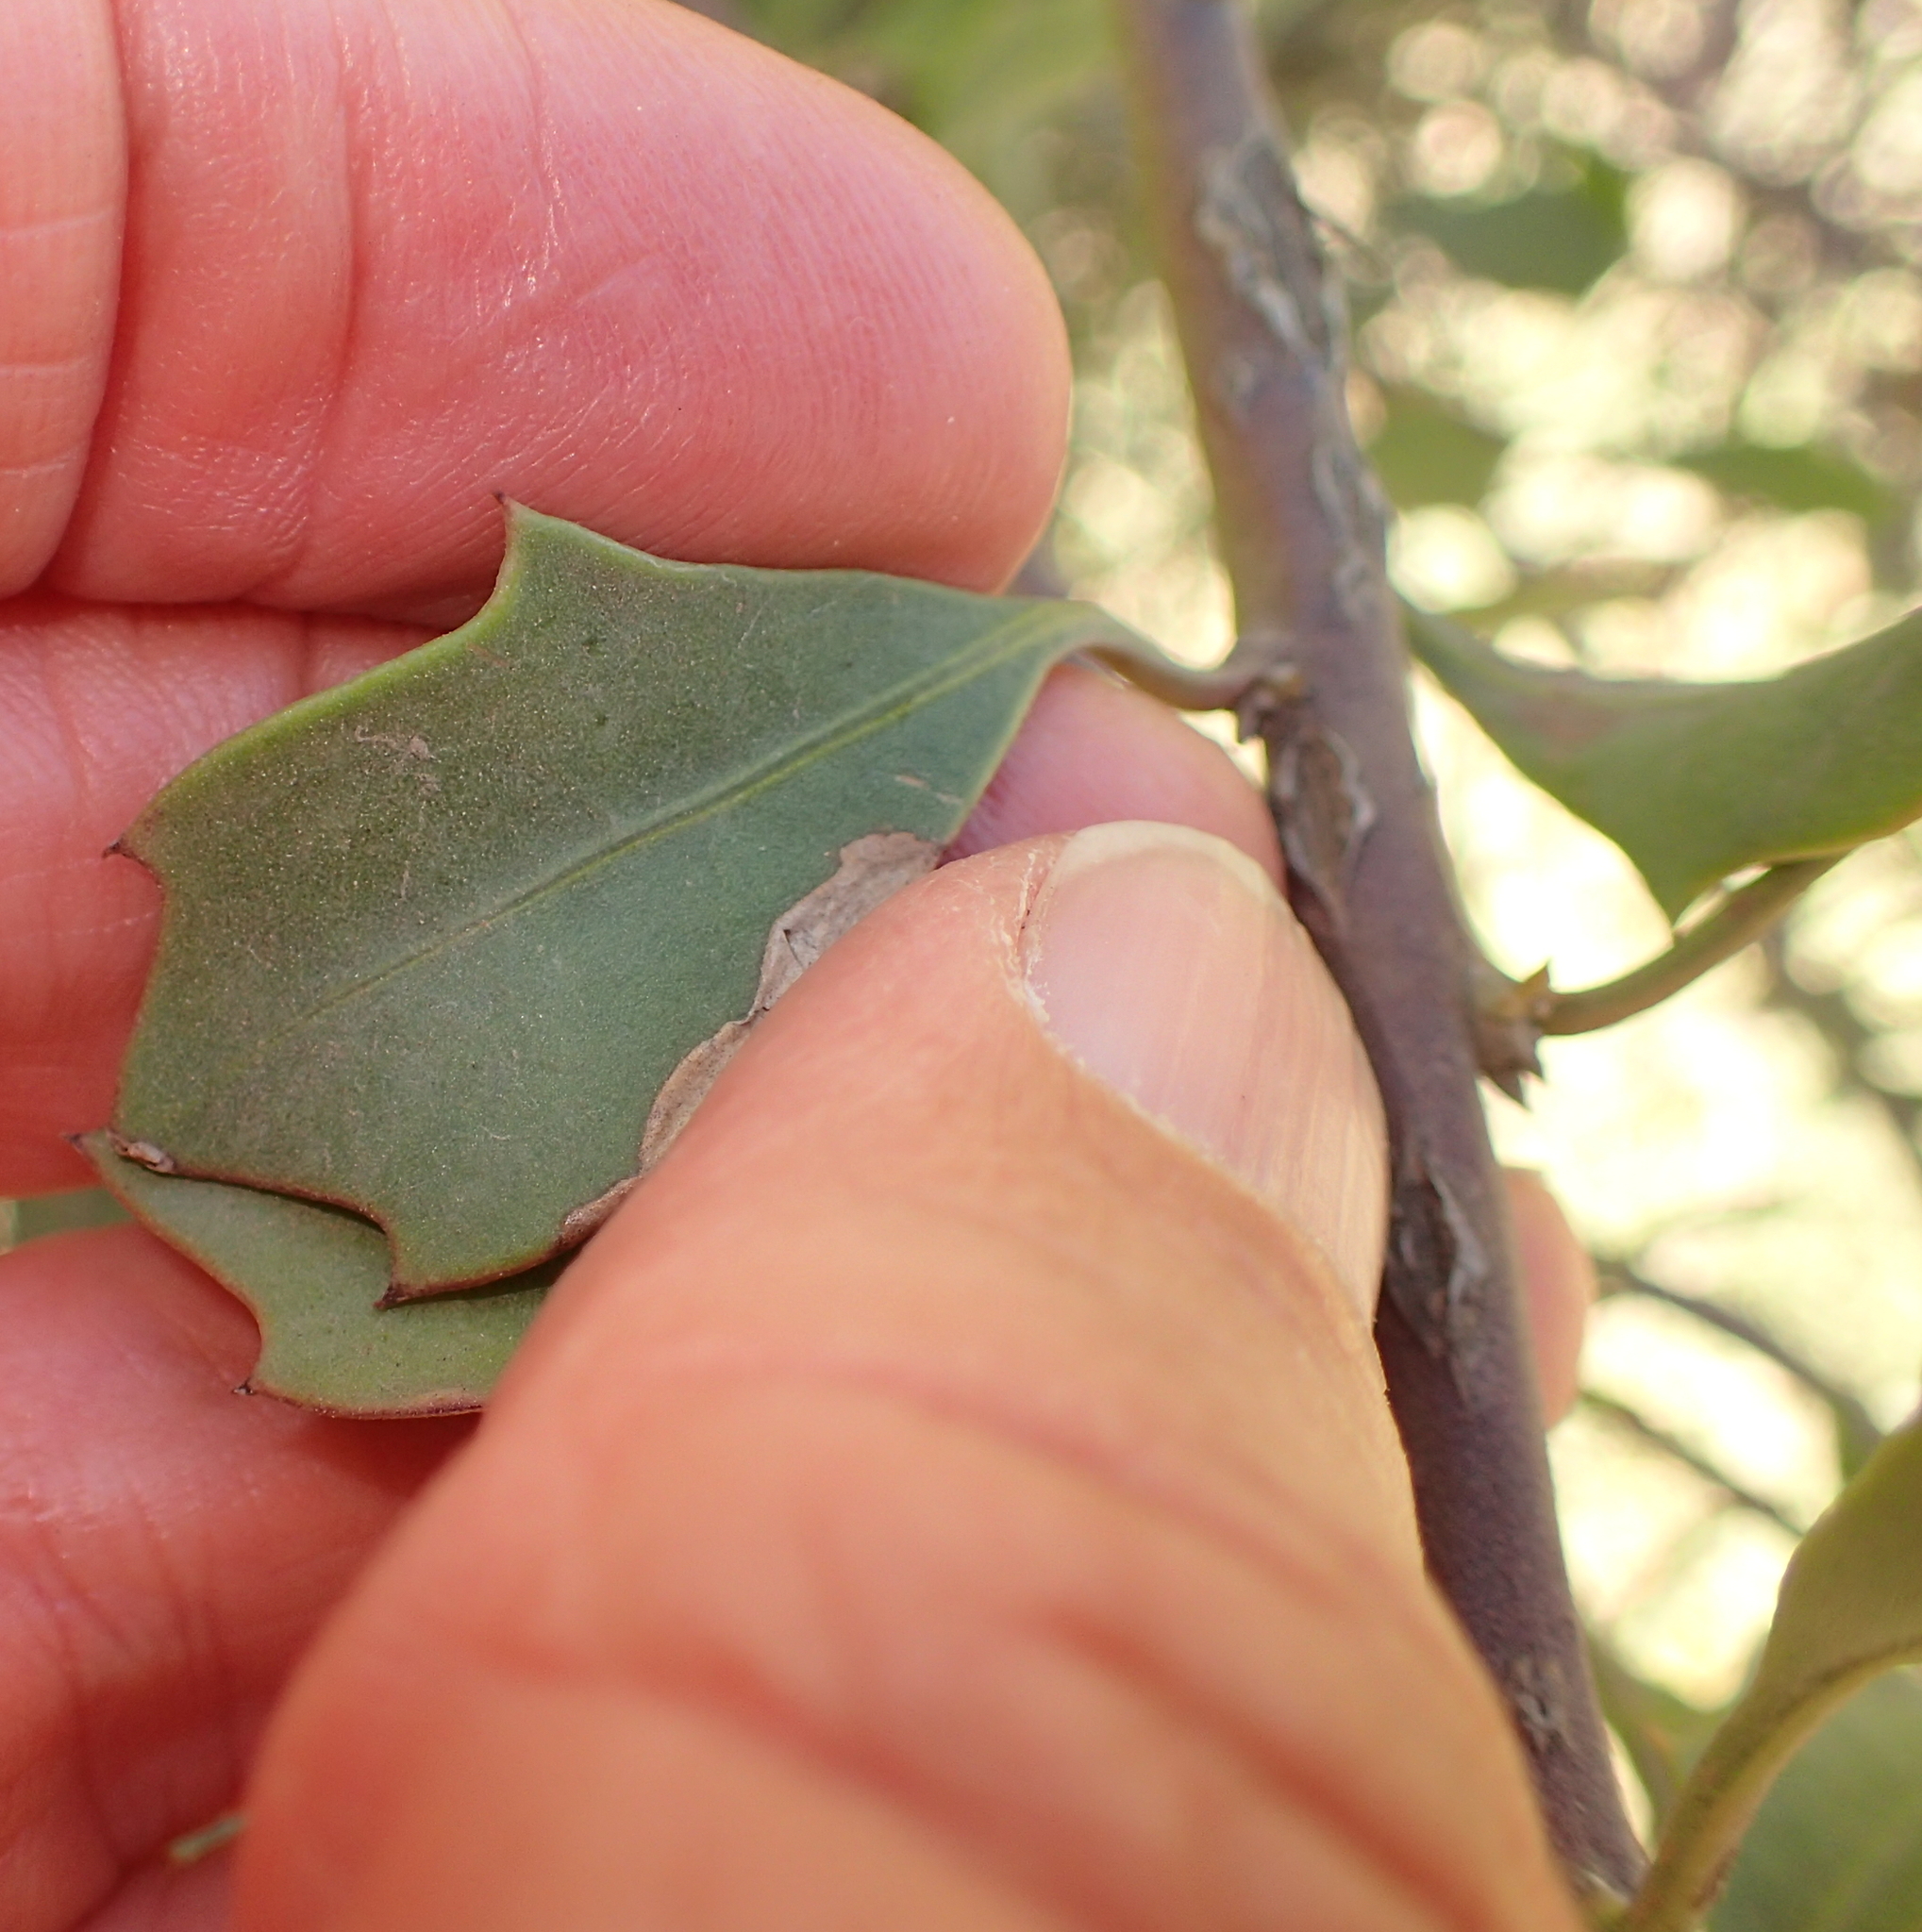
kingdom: Plantae
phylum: Tracheophyta
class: Magnoliopsida
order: Asterales
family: Asteraceae
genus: Osteospermum
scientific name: Osteospermum moniliferum
